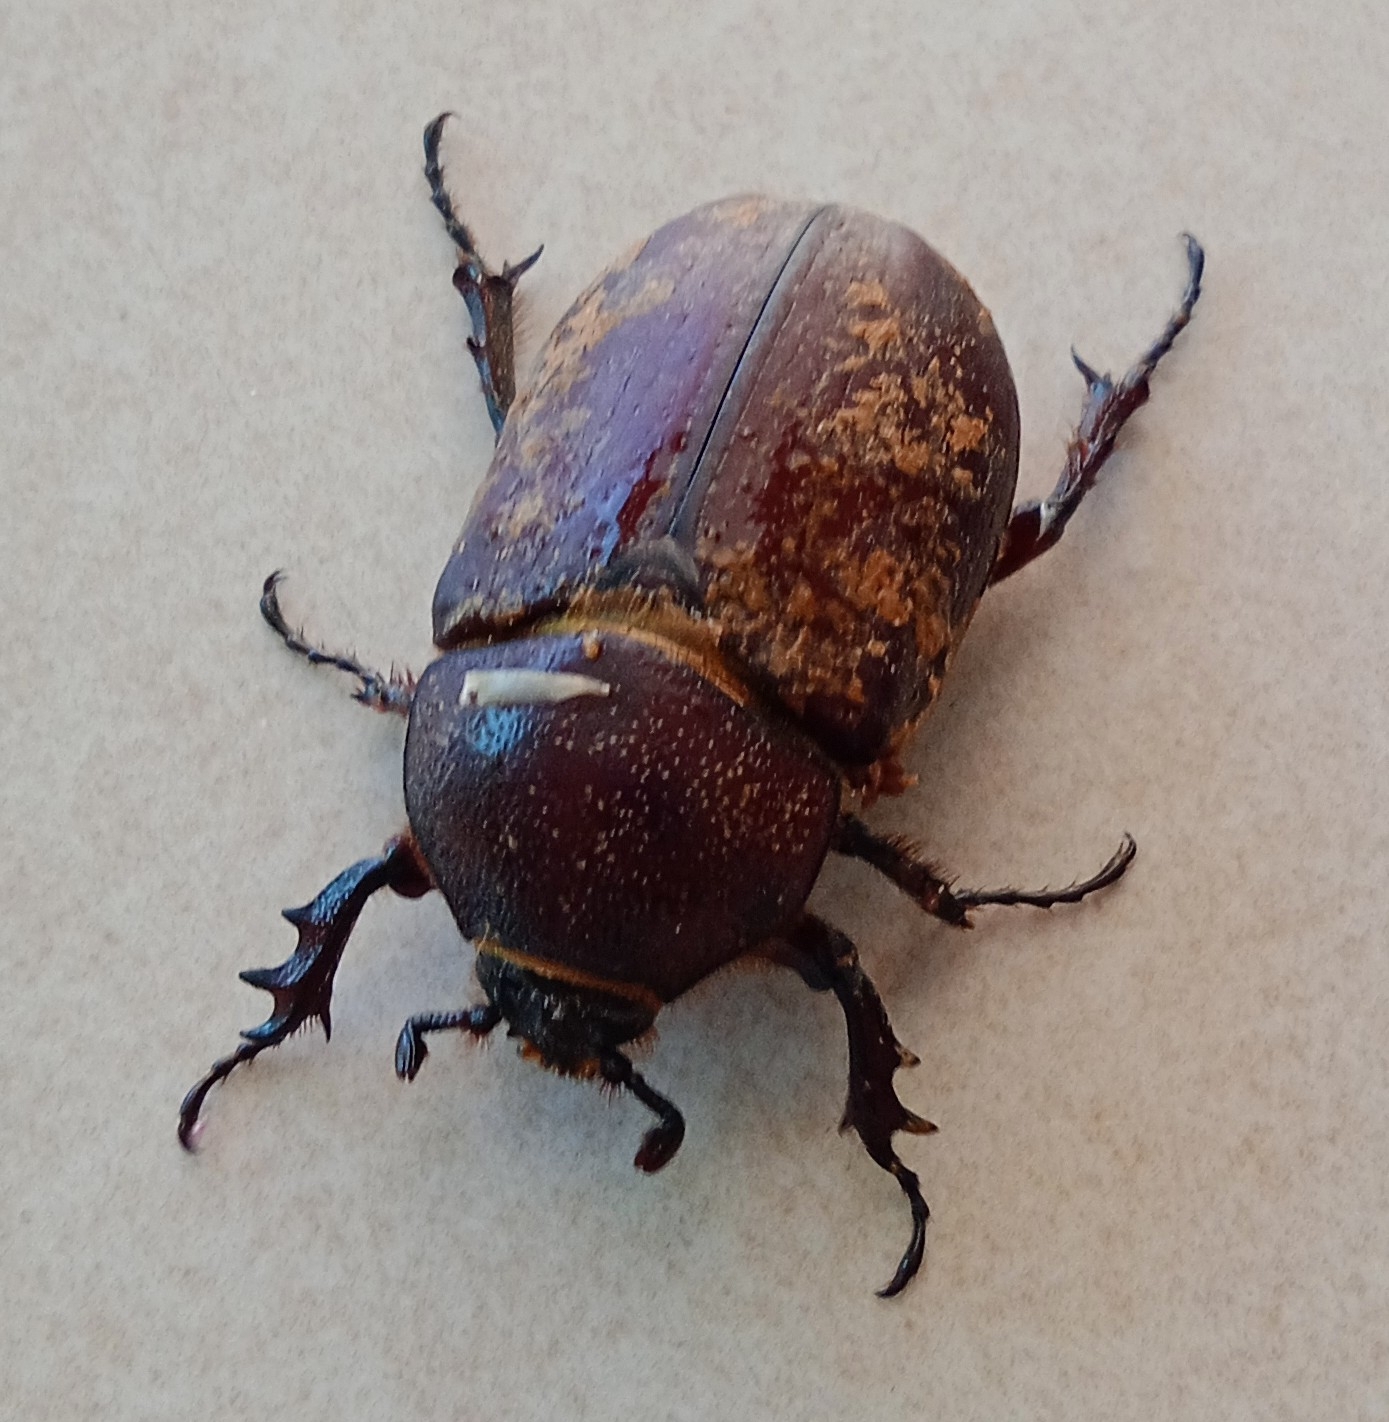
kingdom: Animalia
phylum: Arthropoda
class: Insecta
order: Coleoptera
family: Scarabaeidae
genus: Coelosis
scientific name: Coelosis biloba
